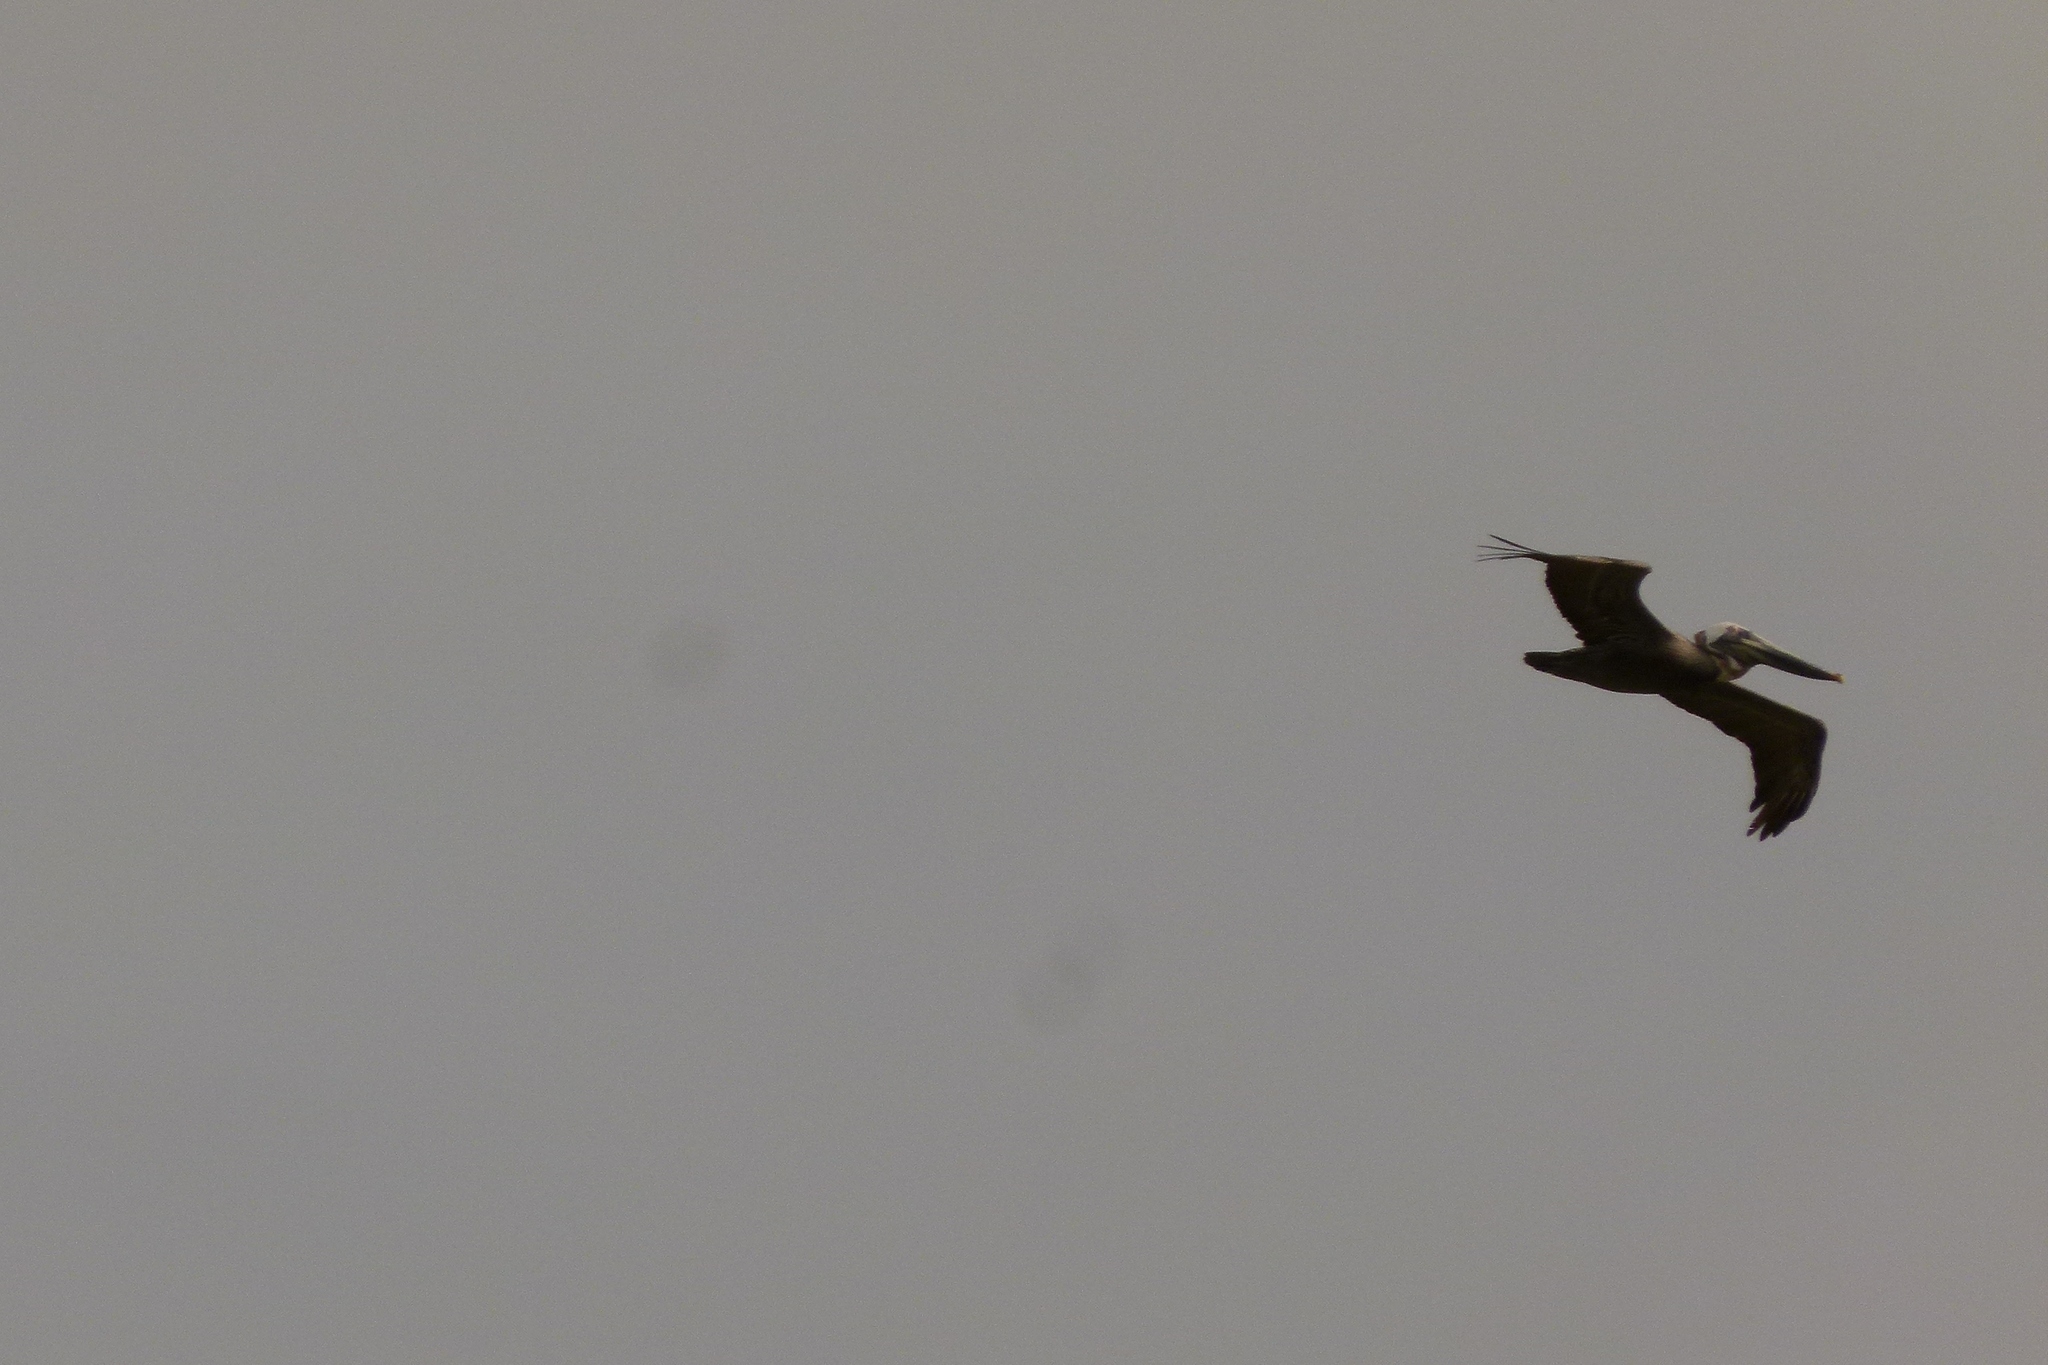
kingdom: Animalia
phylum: Chordata
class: Aves
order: Pelecaniformes
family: Pelecanidae
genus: Pelecanus
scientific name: Pelecanus occidentalis
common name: Brown pelican
